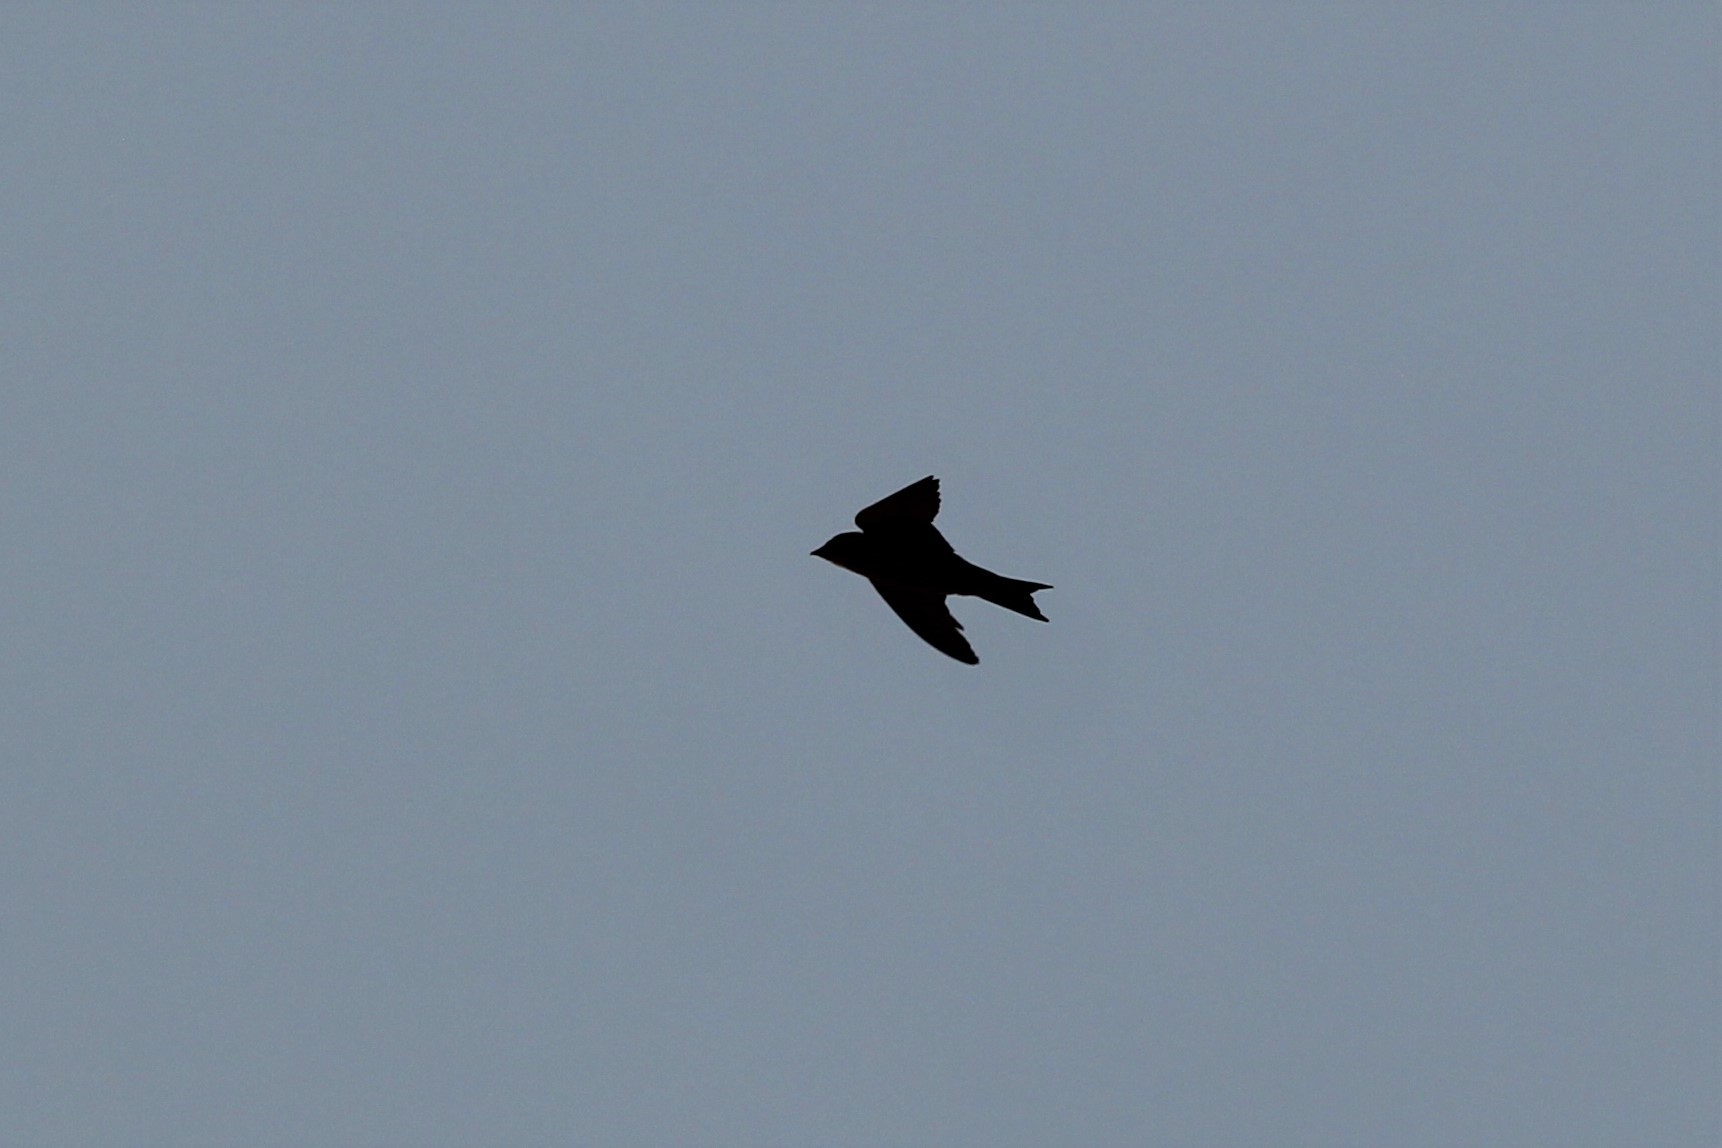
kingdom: Animalia
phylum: Chordata
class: Aves
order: Passeriformes
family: Hirundinidae
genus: Progne
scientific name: Progne subis
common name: Purple martin
